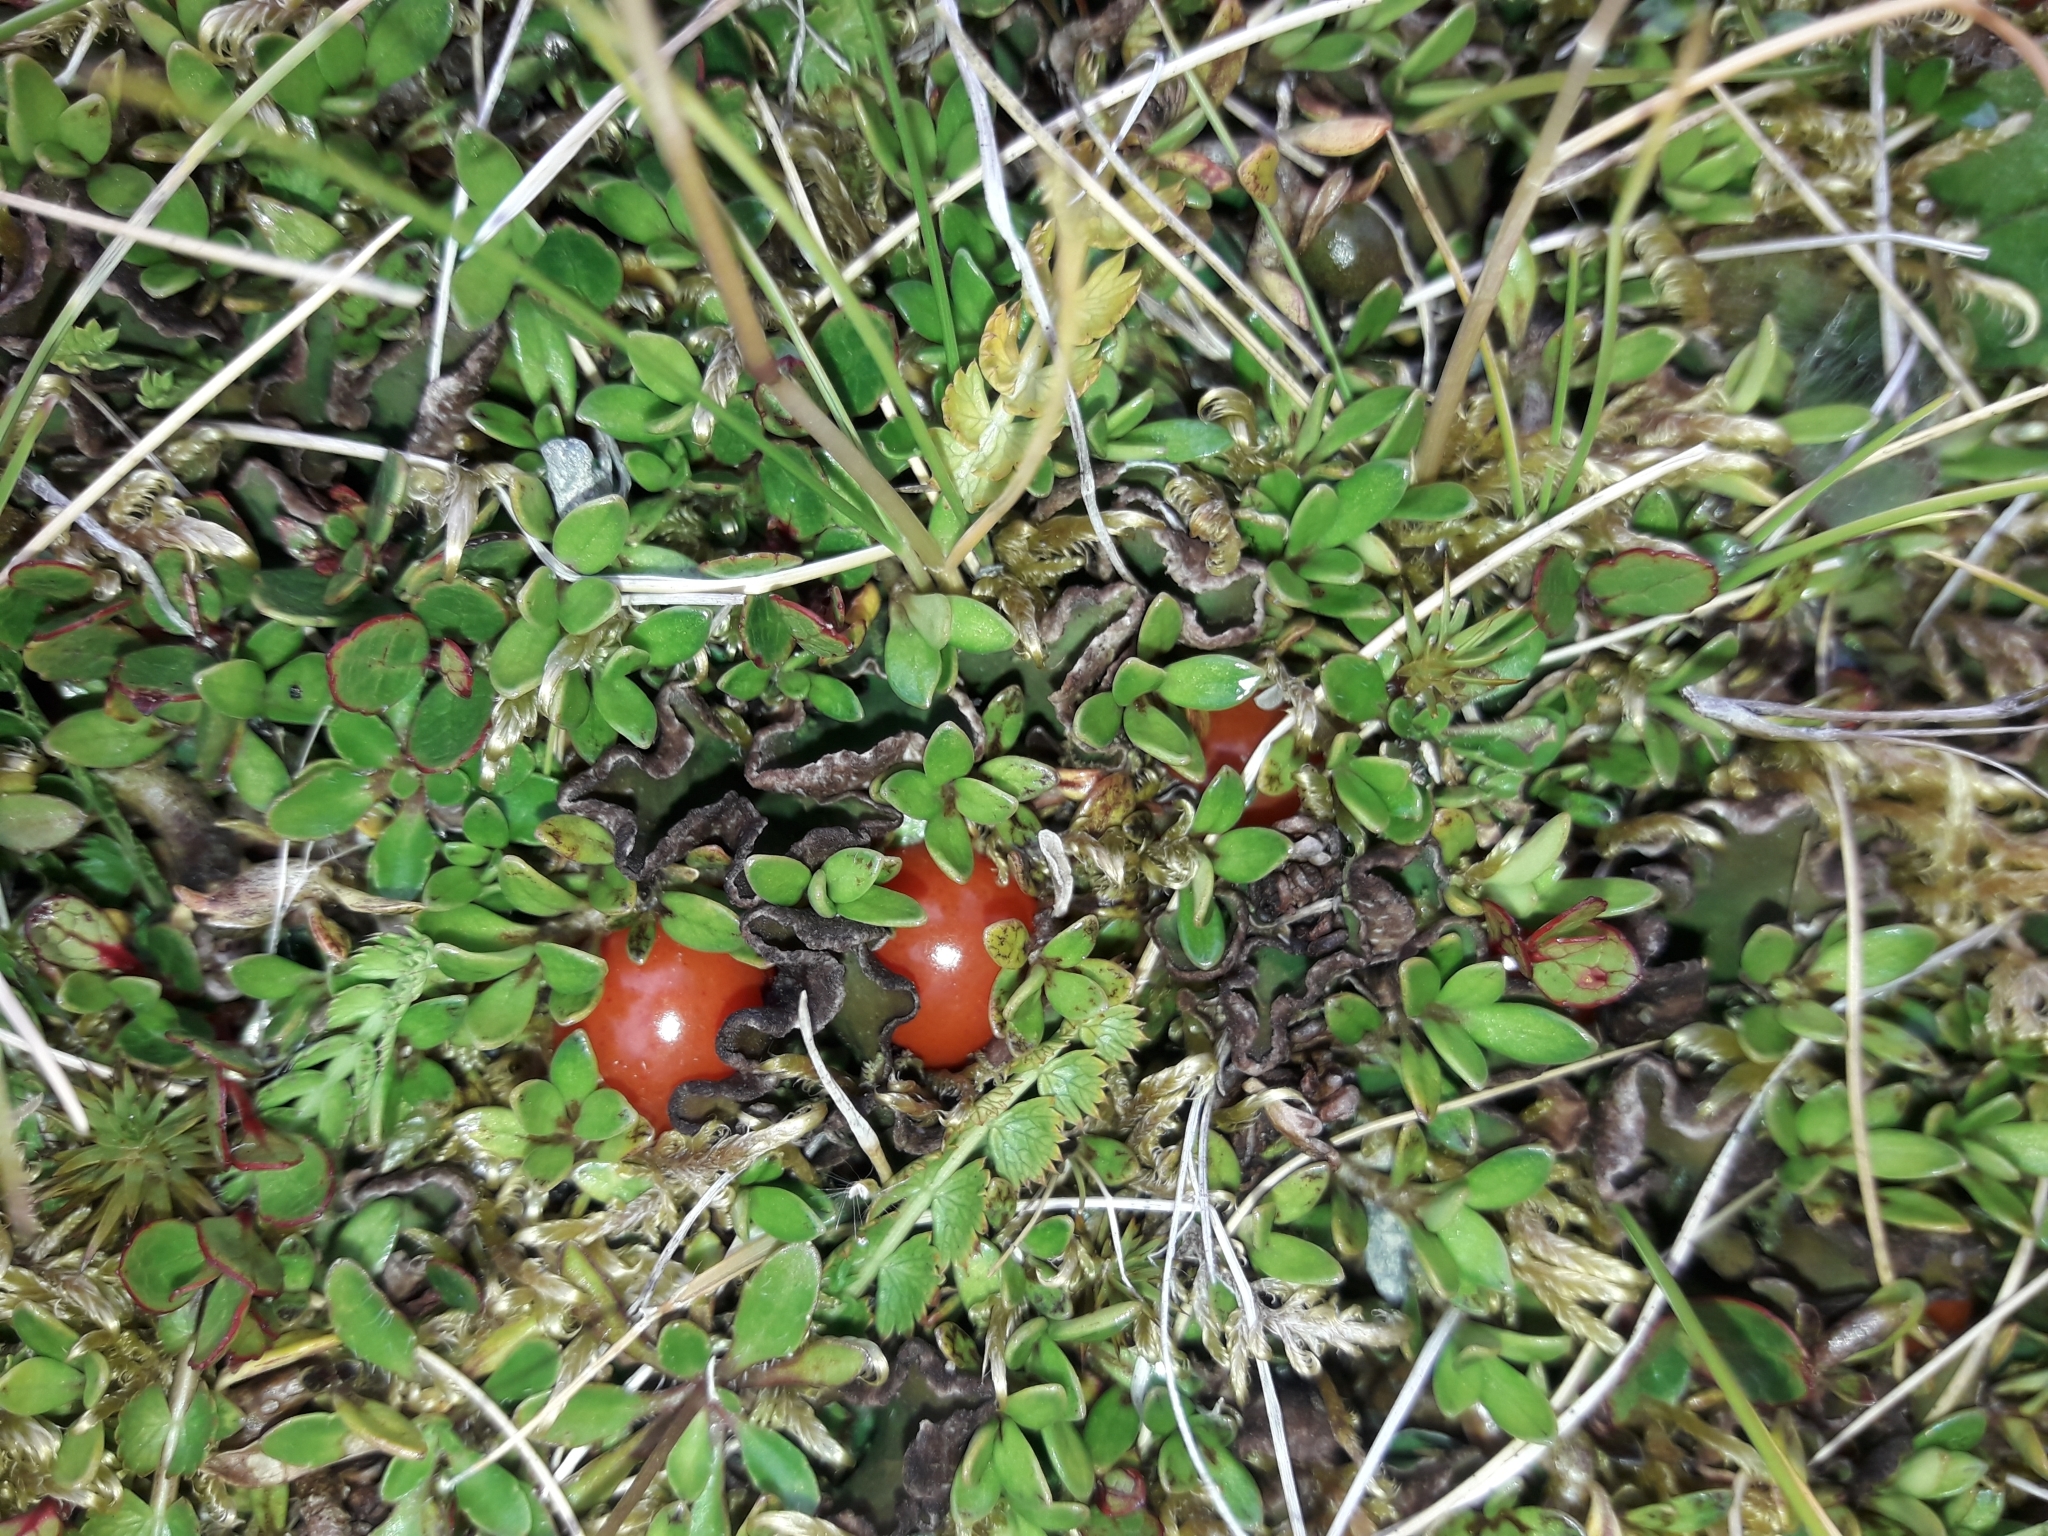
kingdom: Plantae
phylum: Tracheophyta
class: Magnoliopsida
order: Gentianales
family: Rubiaceae
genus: Coprosma
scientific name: Coprosma perpusilla
